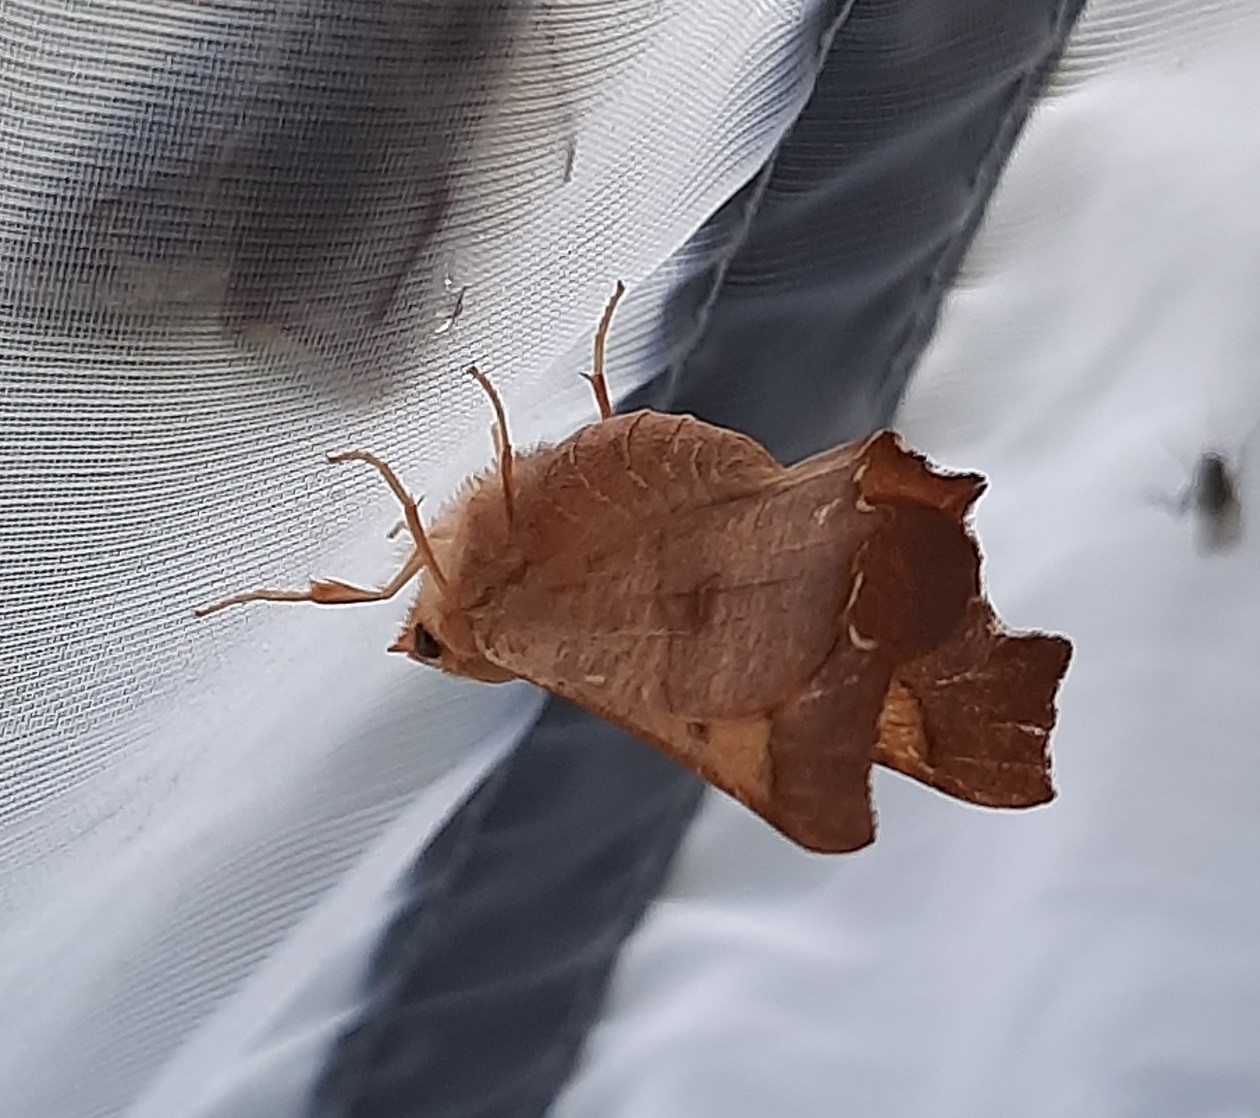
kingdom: Animalia
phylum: Arthropoda
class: Insecta
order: Lepidoptera
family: Geometridae
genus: Ennomos
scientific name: Ennomos fuscantaria
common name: Dusky thorn
